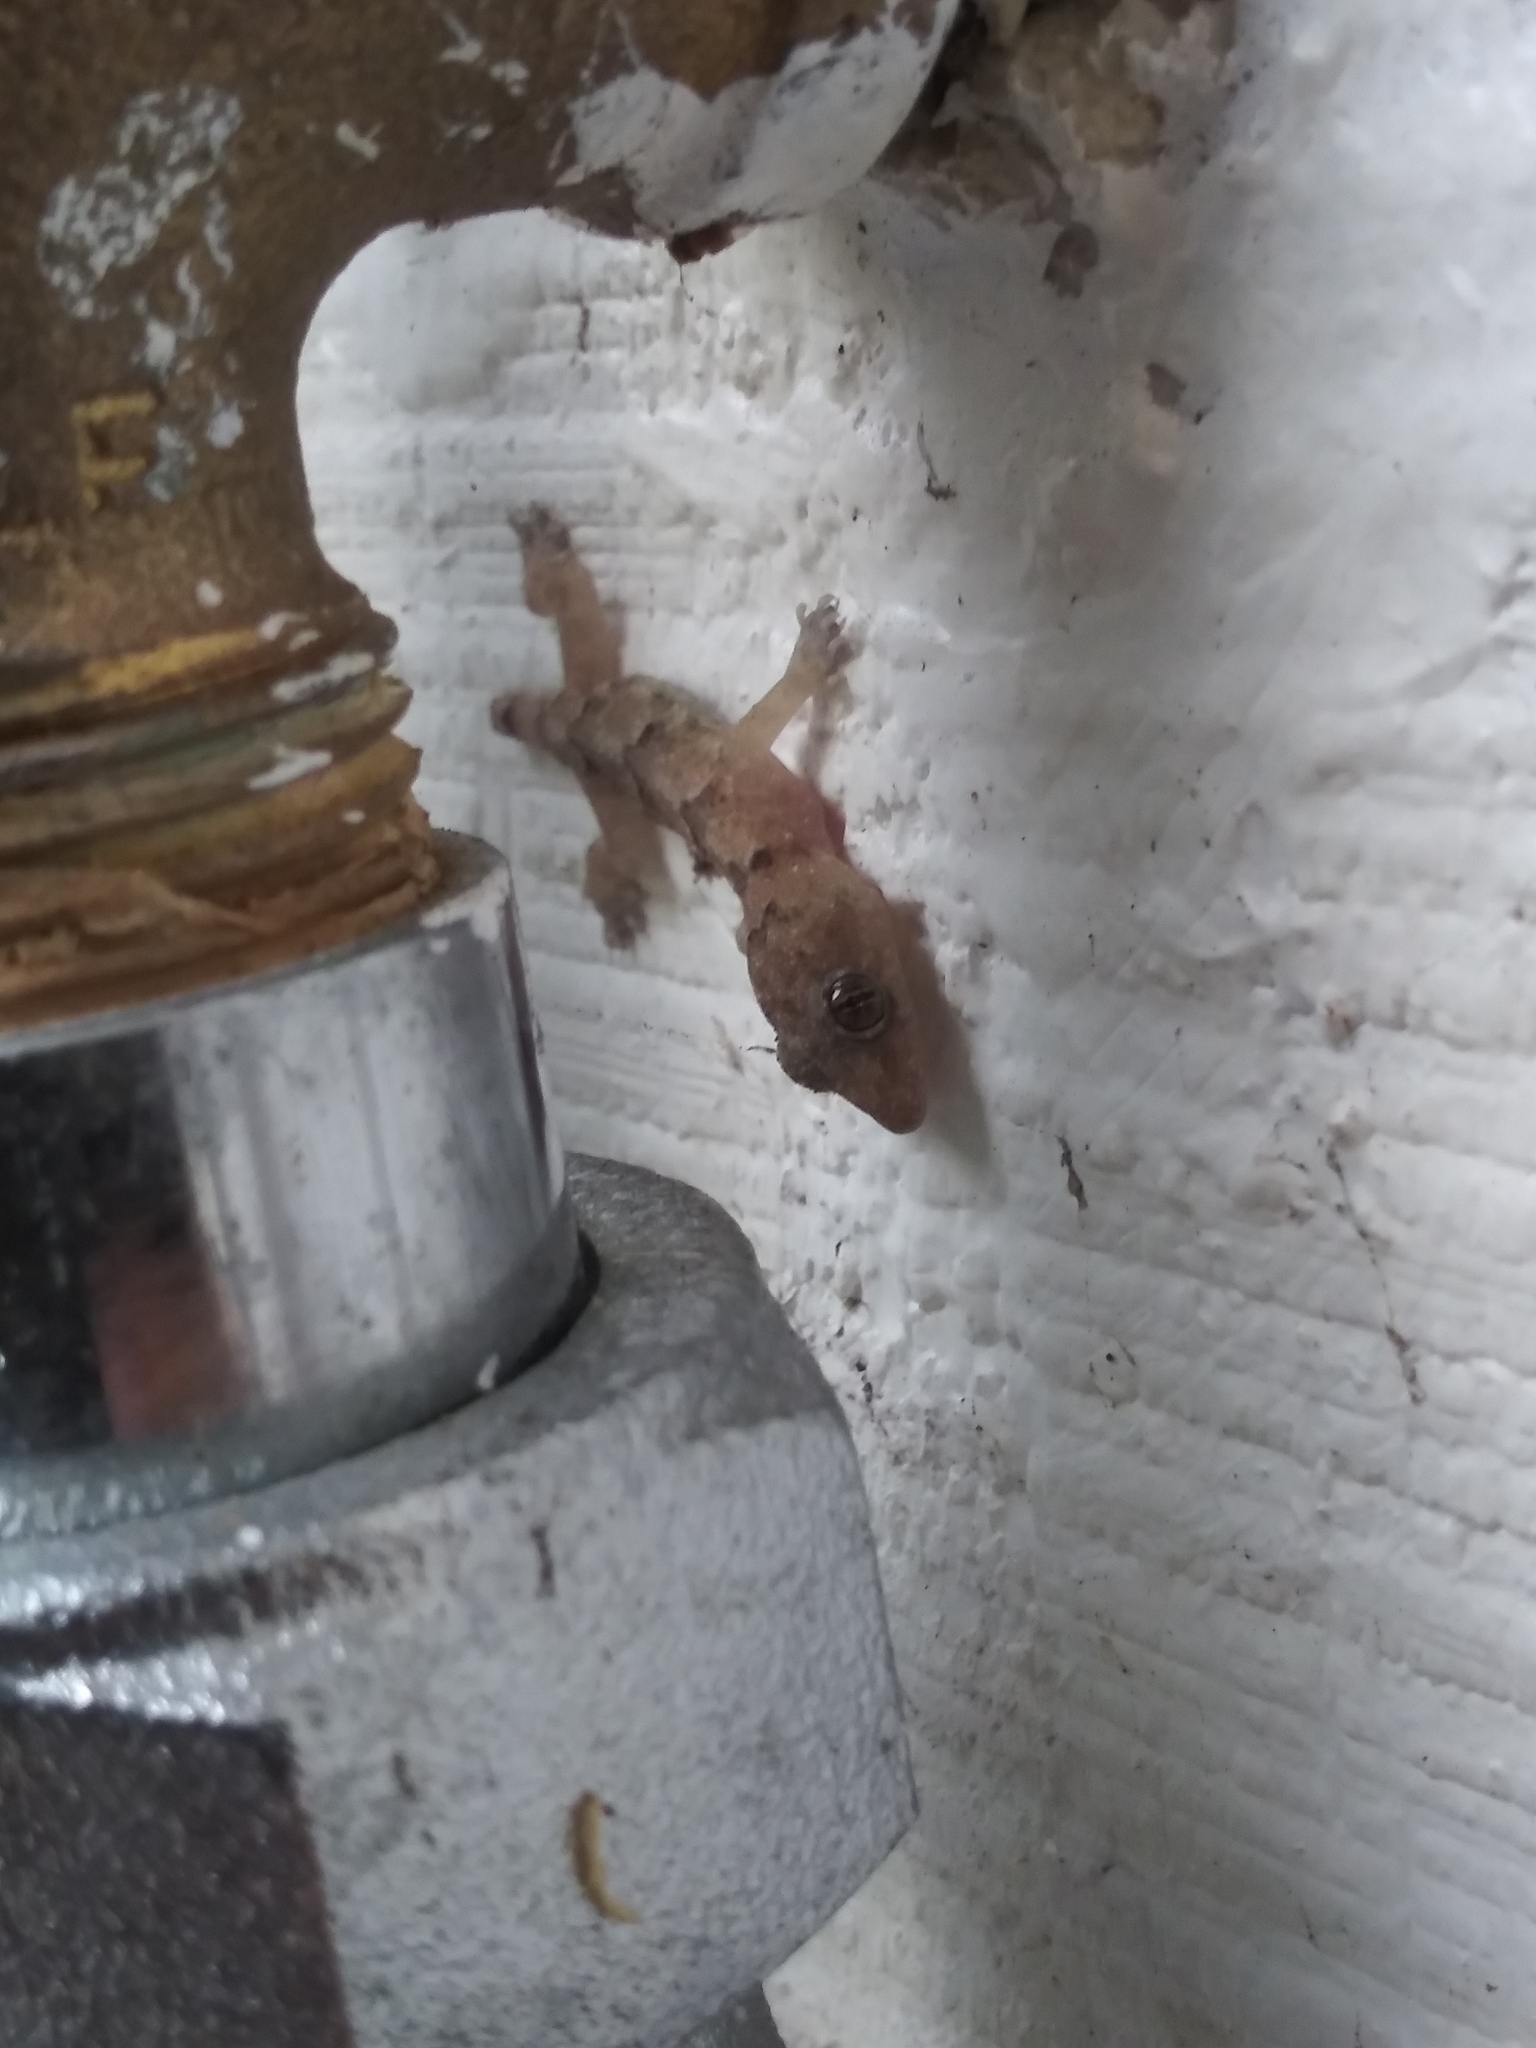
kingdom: Animalia
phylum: Chordata
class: Squamata
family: Gekkonidae
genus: Hemidactylus
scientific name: Hemidactylus mabouia
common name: House gecko
